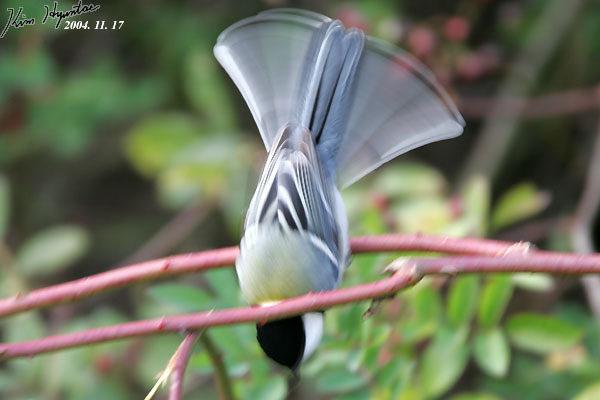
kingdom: Animalia
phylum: Chordata
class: Aves
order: Passeriformes
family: Paridae
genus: Parus
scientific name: Parus minor
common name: Japanese tit
